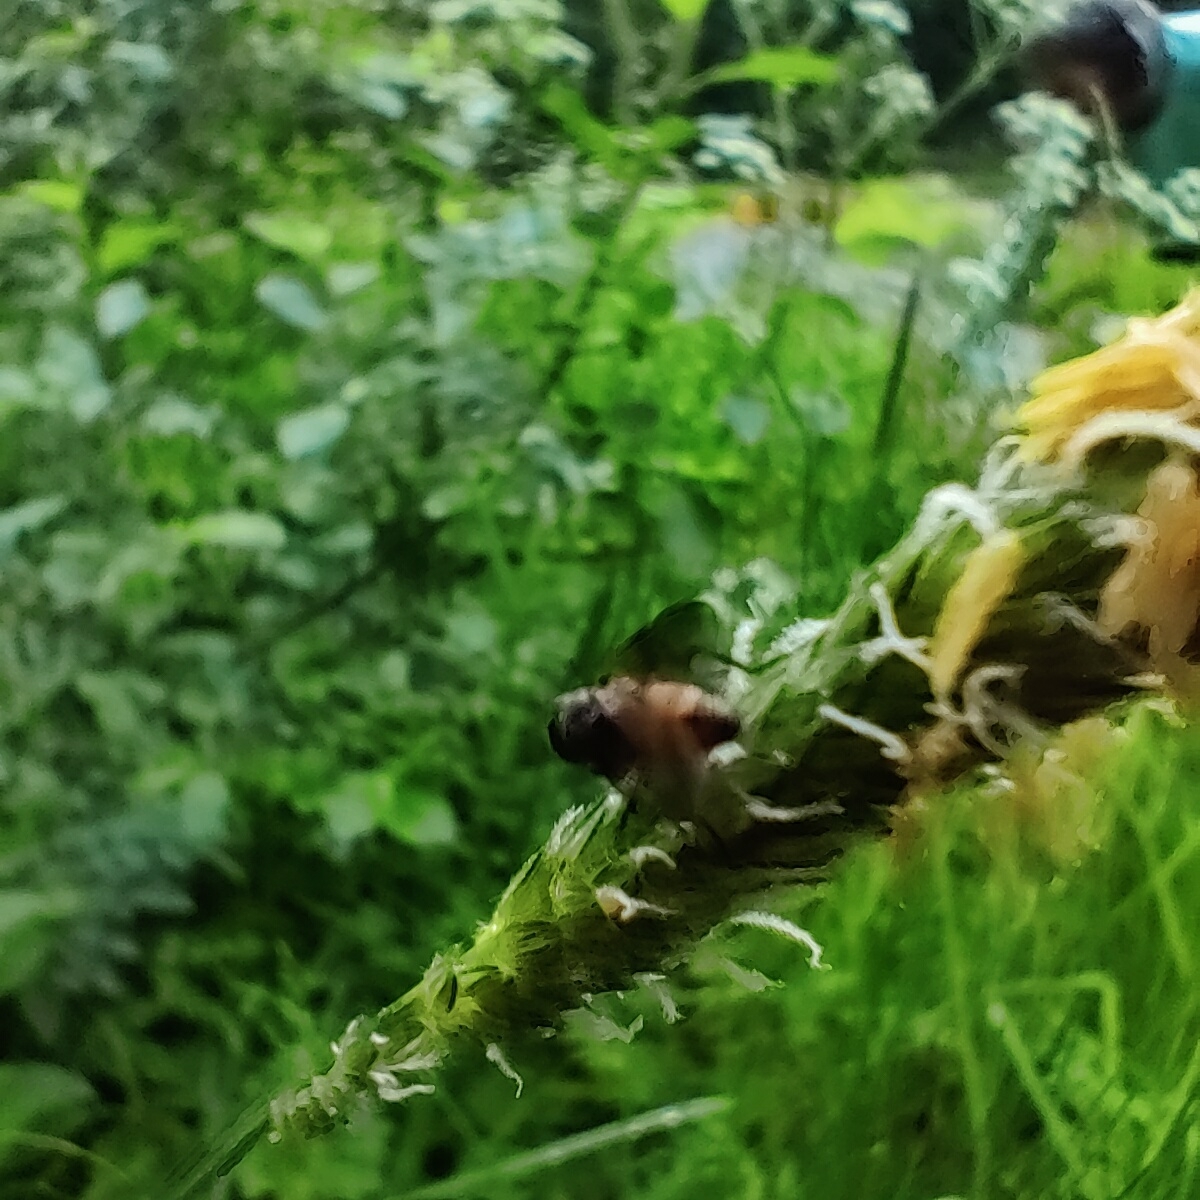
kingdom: Animalia
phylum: Arthropoda
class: Insecta
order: Diptera
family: Muscidae
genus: Thricops
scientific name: Thricops semicinereus
